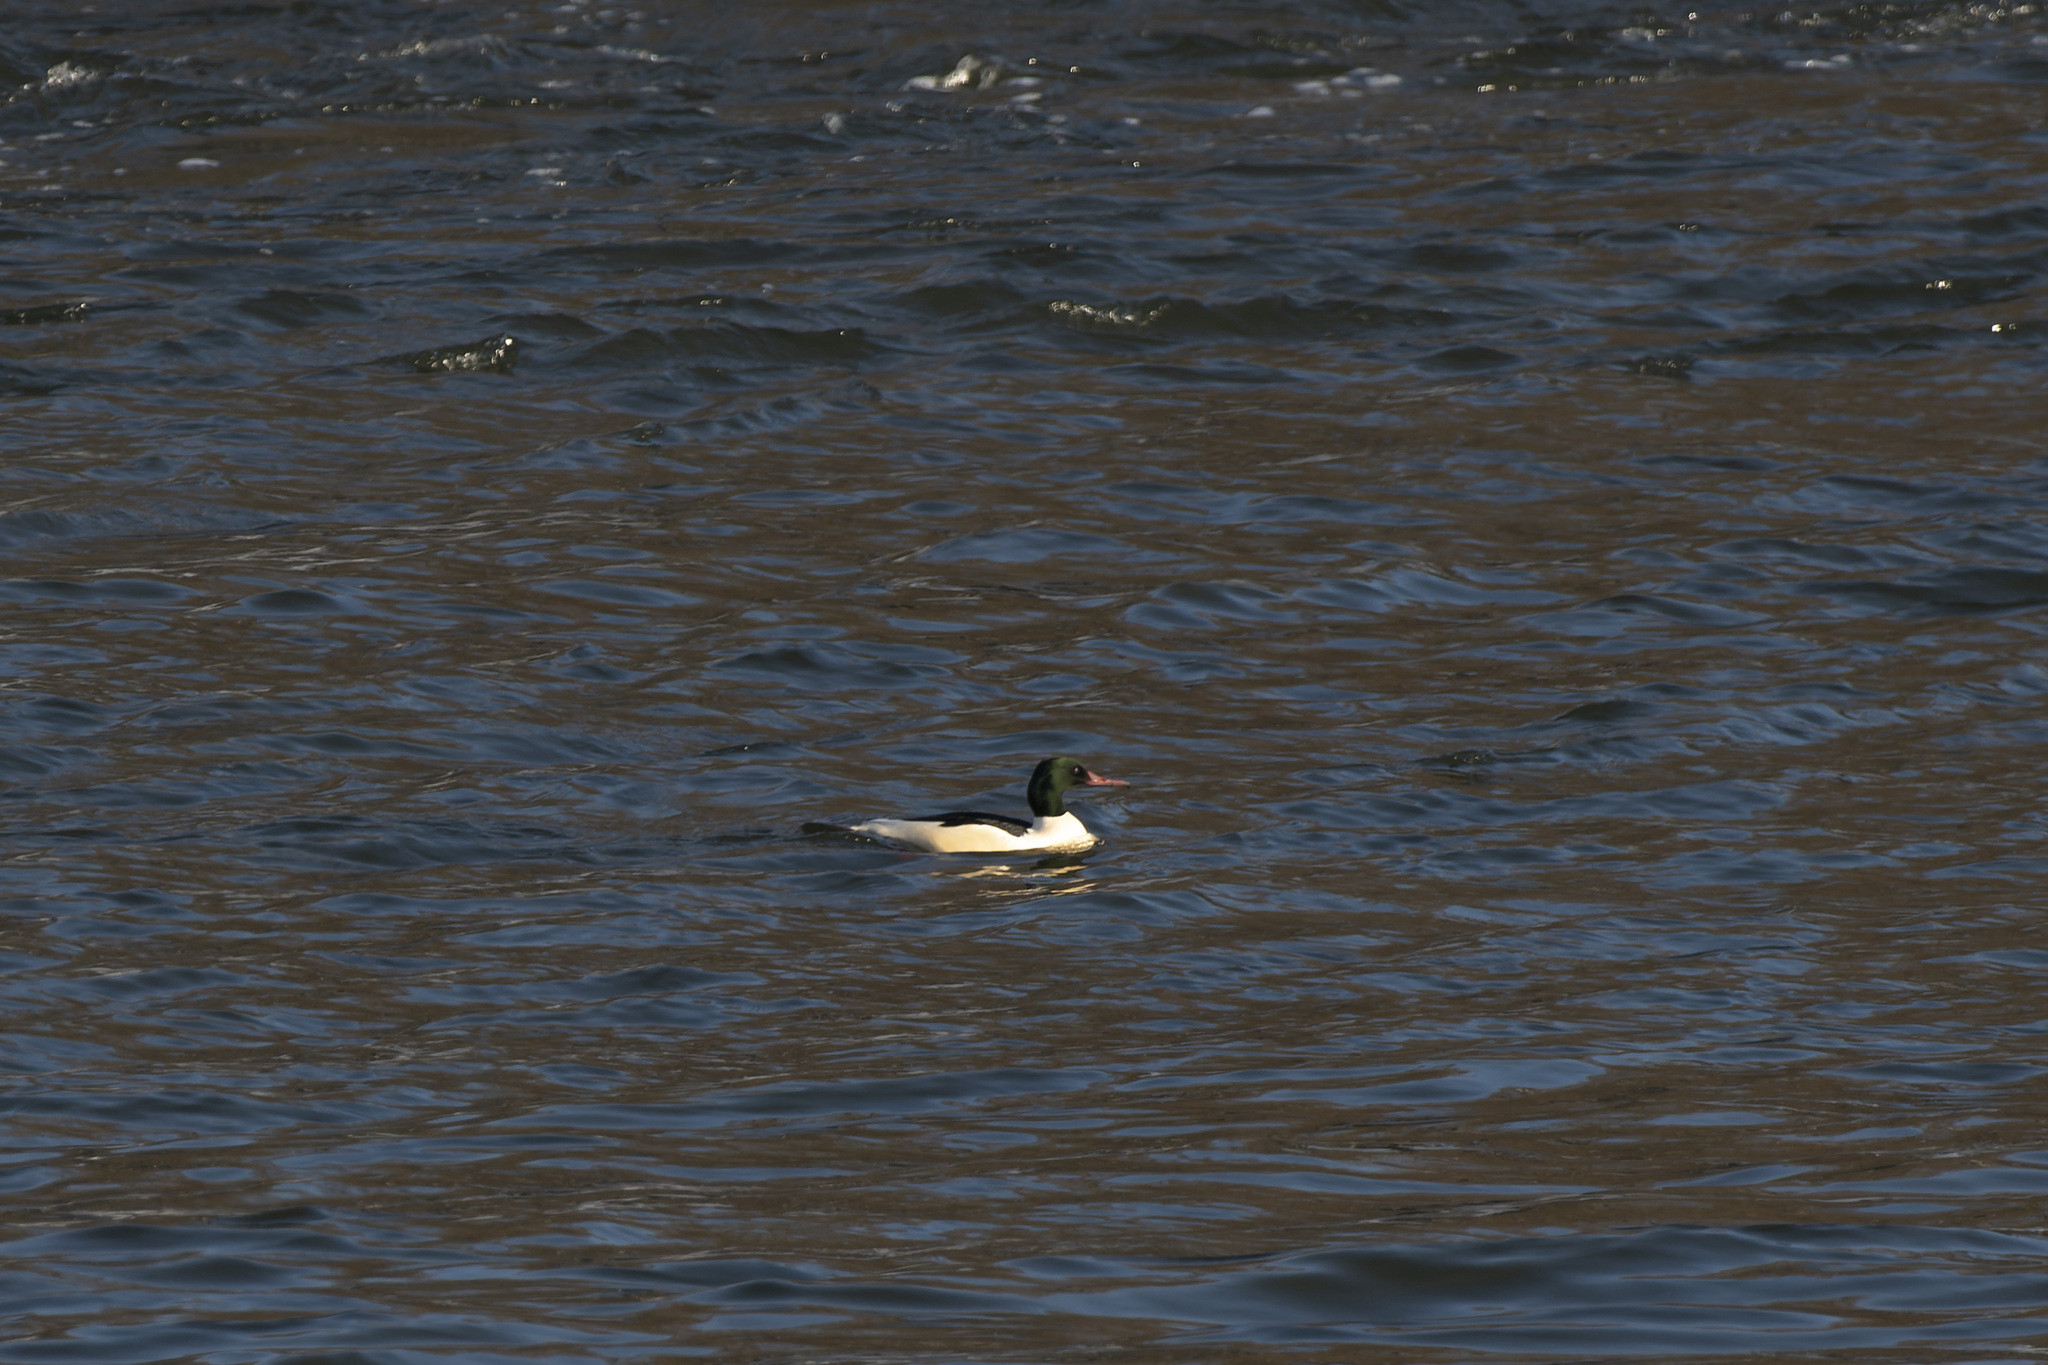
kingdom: Animalia
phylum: Chordata
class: Aves
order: Anseriformes
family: Anatidae
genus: Mergus
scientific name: Mergus merganser
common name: Common merganser
